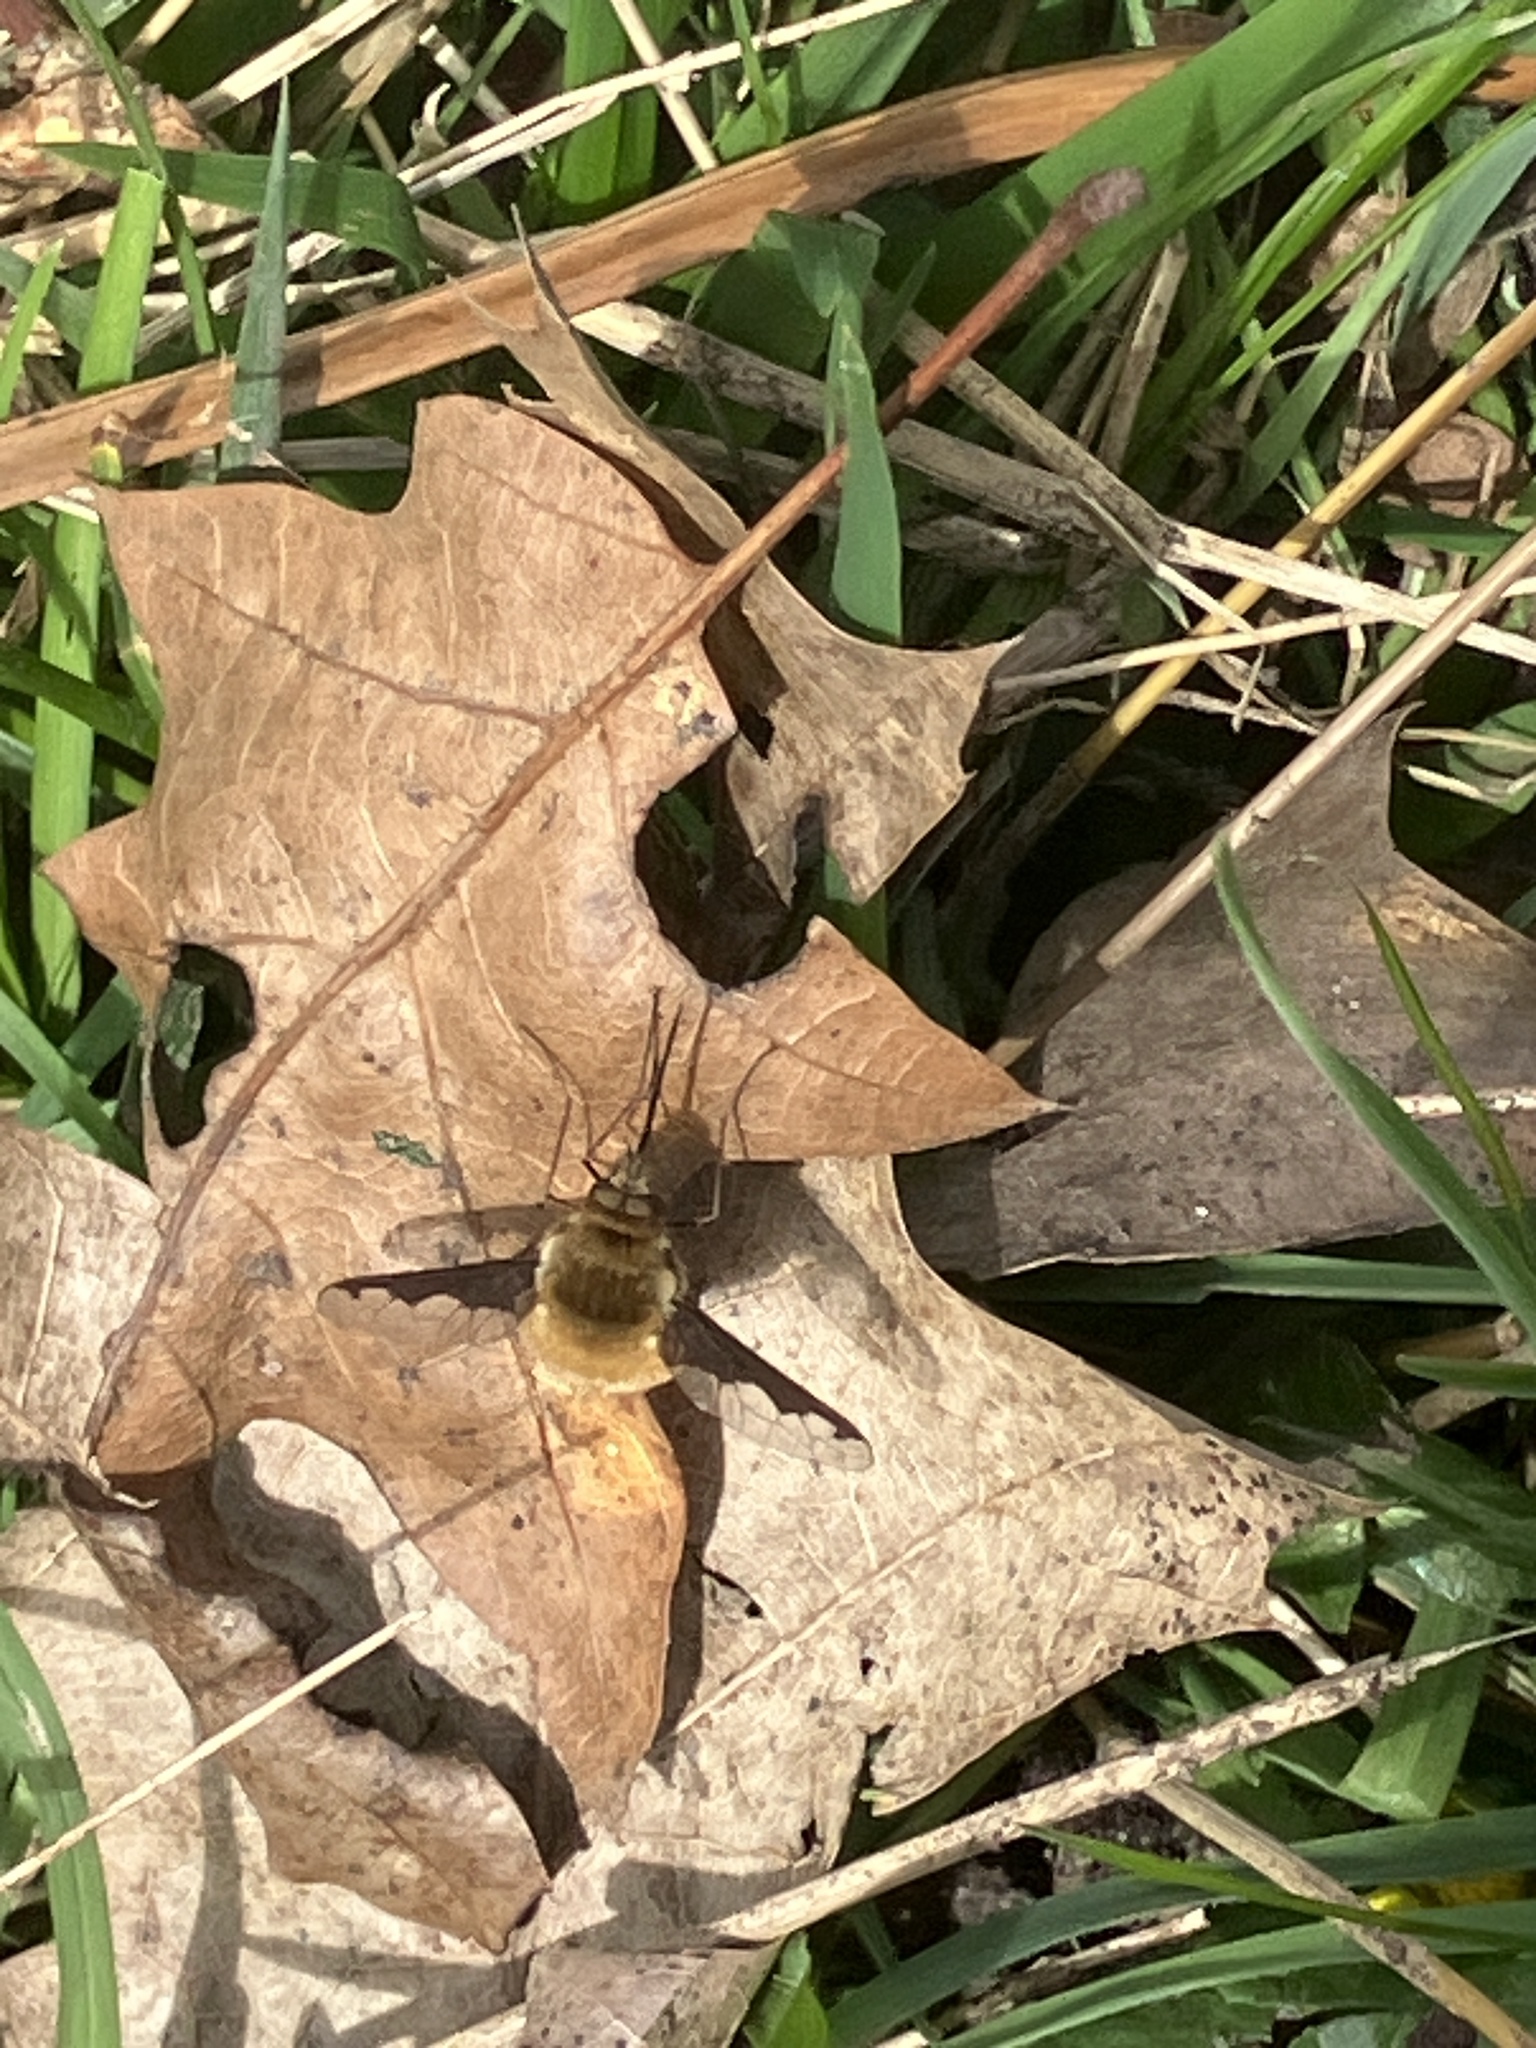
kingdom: Animalia
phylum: Arthropoda
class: Insecta
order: Diptera
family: Bombyliidae
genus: Bombylius
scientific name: Bombylius major
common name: Bee fly
